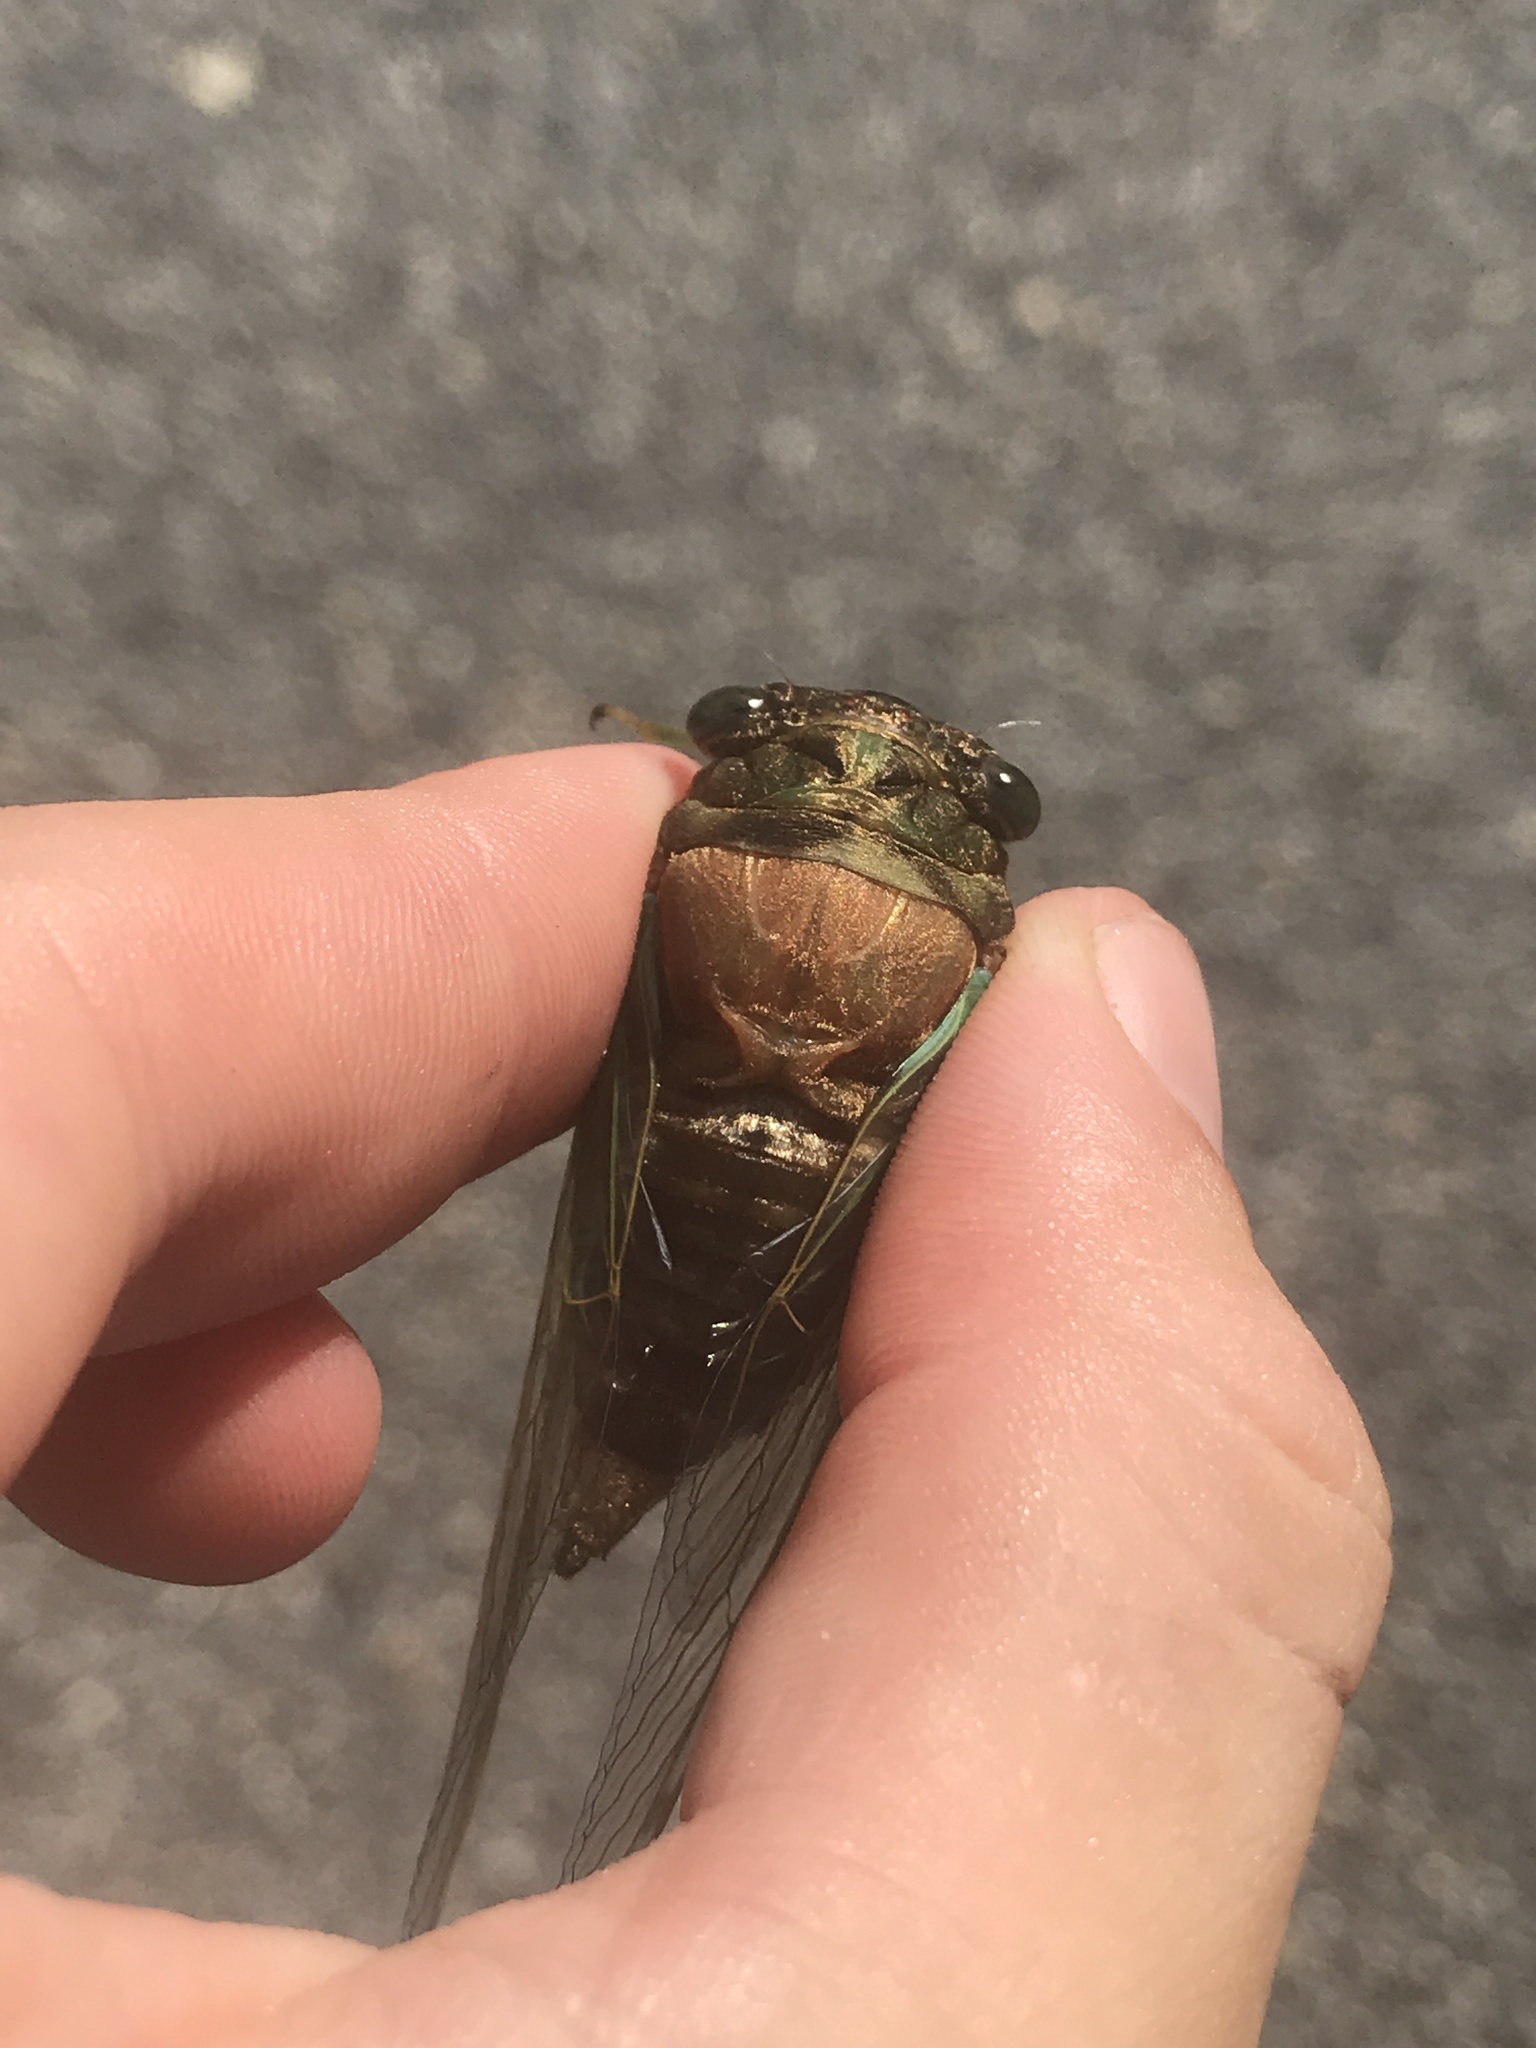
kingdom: Animalia
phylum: Arthropoda
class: Insecta
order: Hemiptera
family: Cicadidae
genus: Neotibicen
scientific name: Neotibicen tibicen
